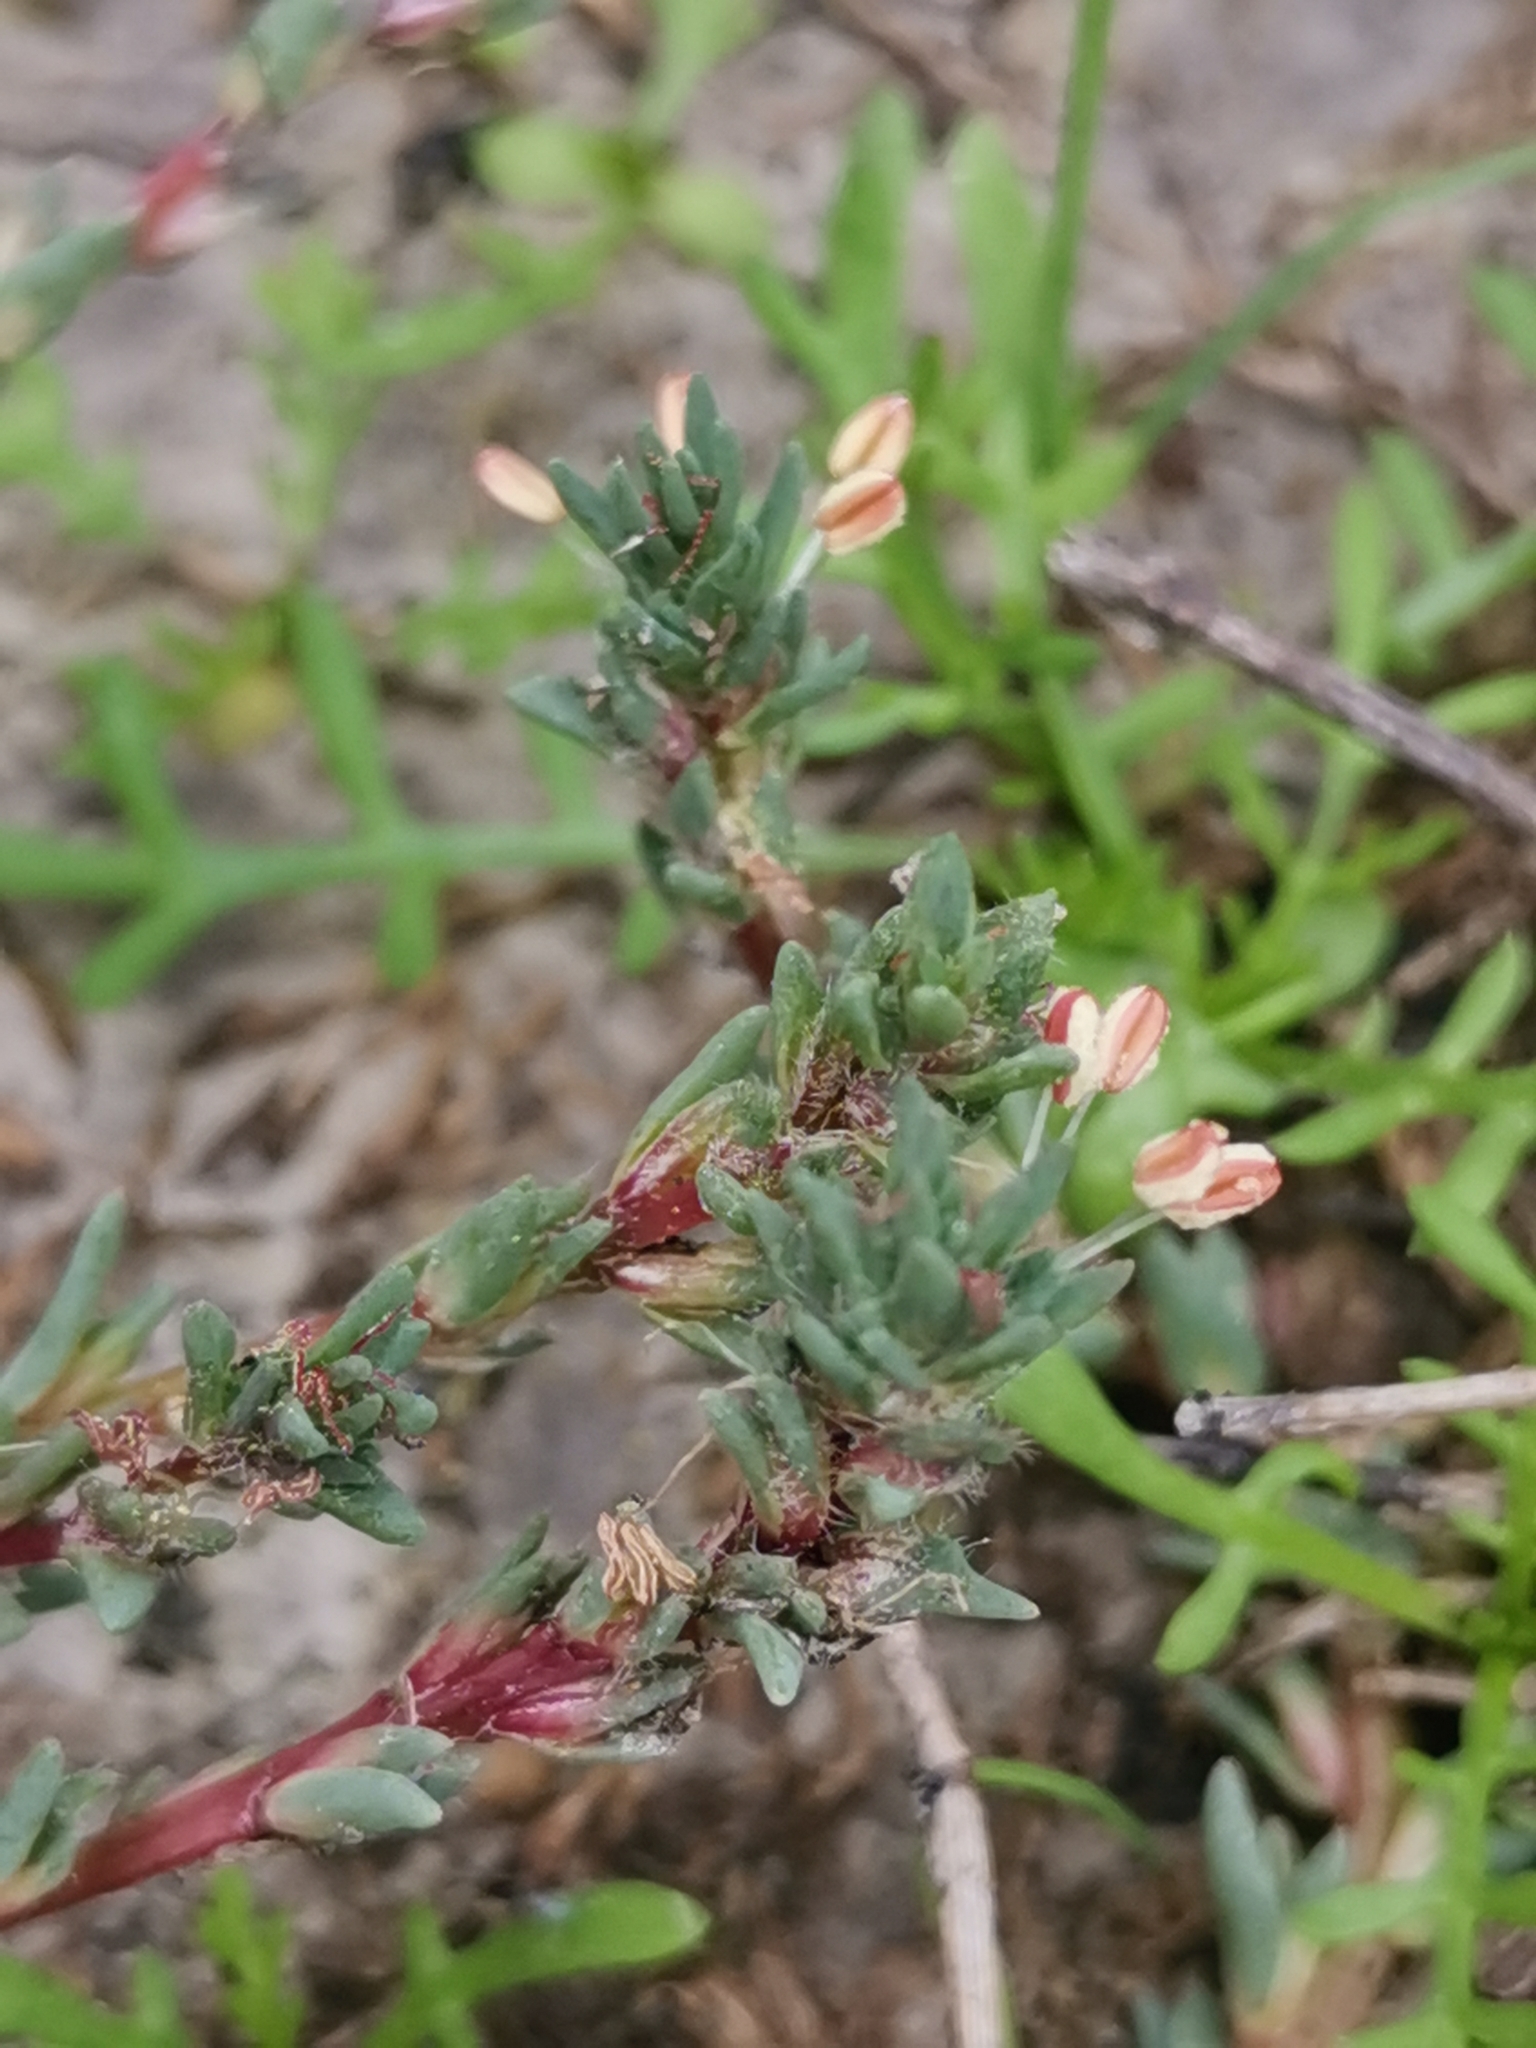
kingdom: Plantae
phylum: Tracheophyta
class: Magnoliopsida
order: Caryophyllales
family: Amaranthaceae
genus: Camphorosma
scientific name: Camphorosma annua
